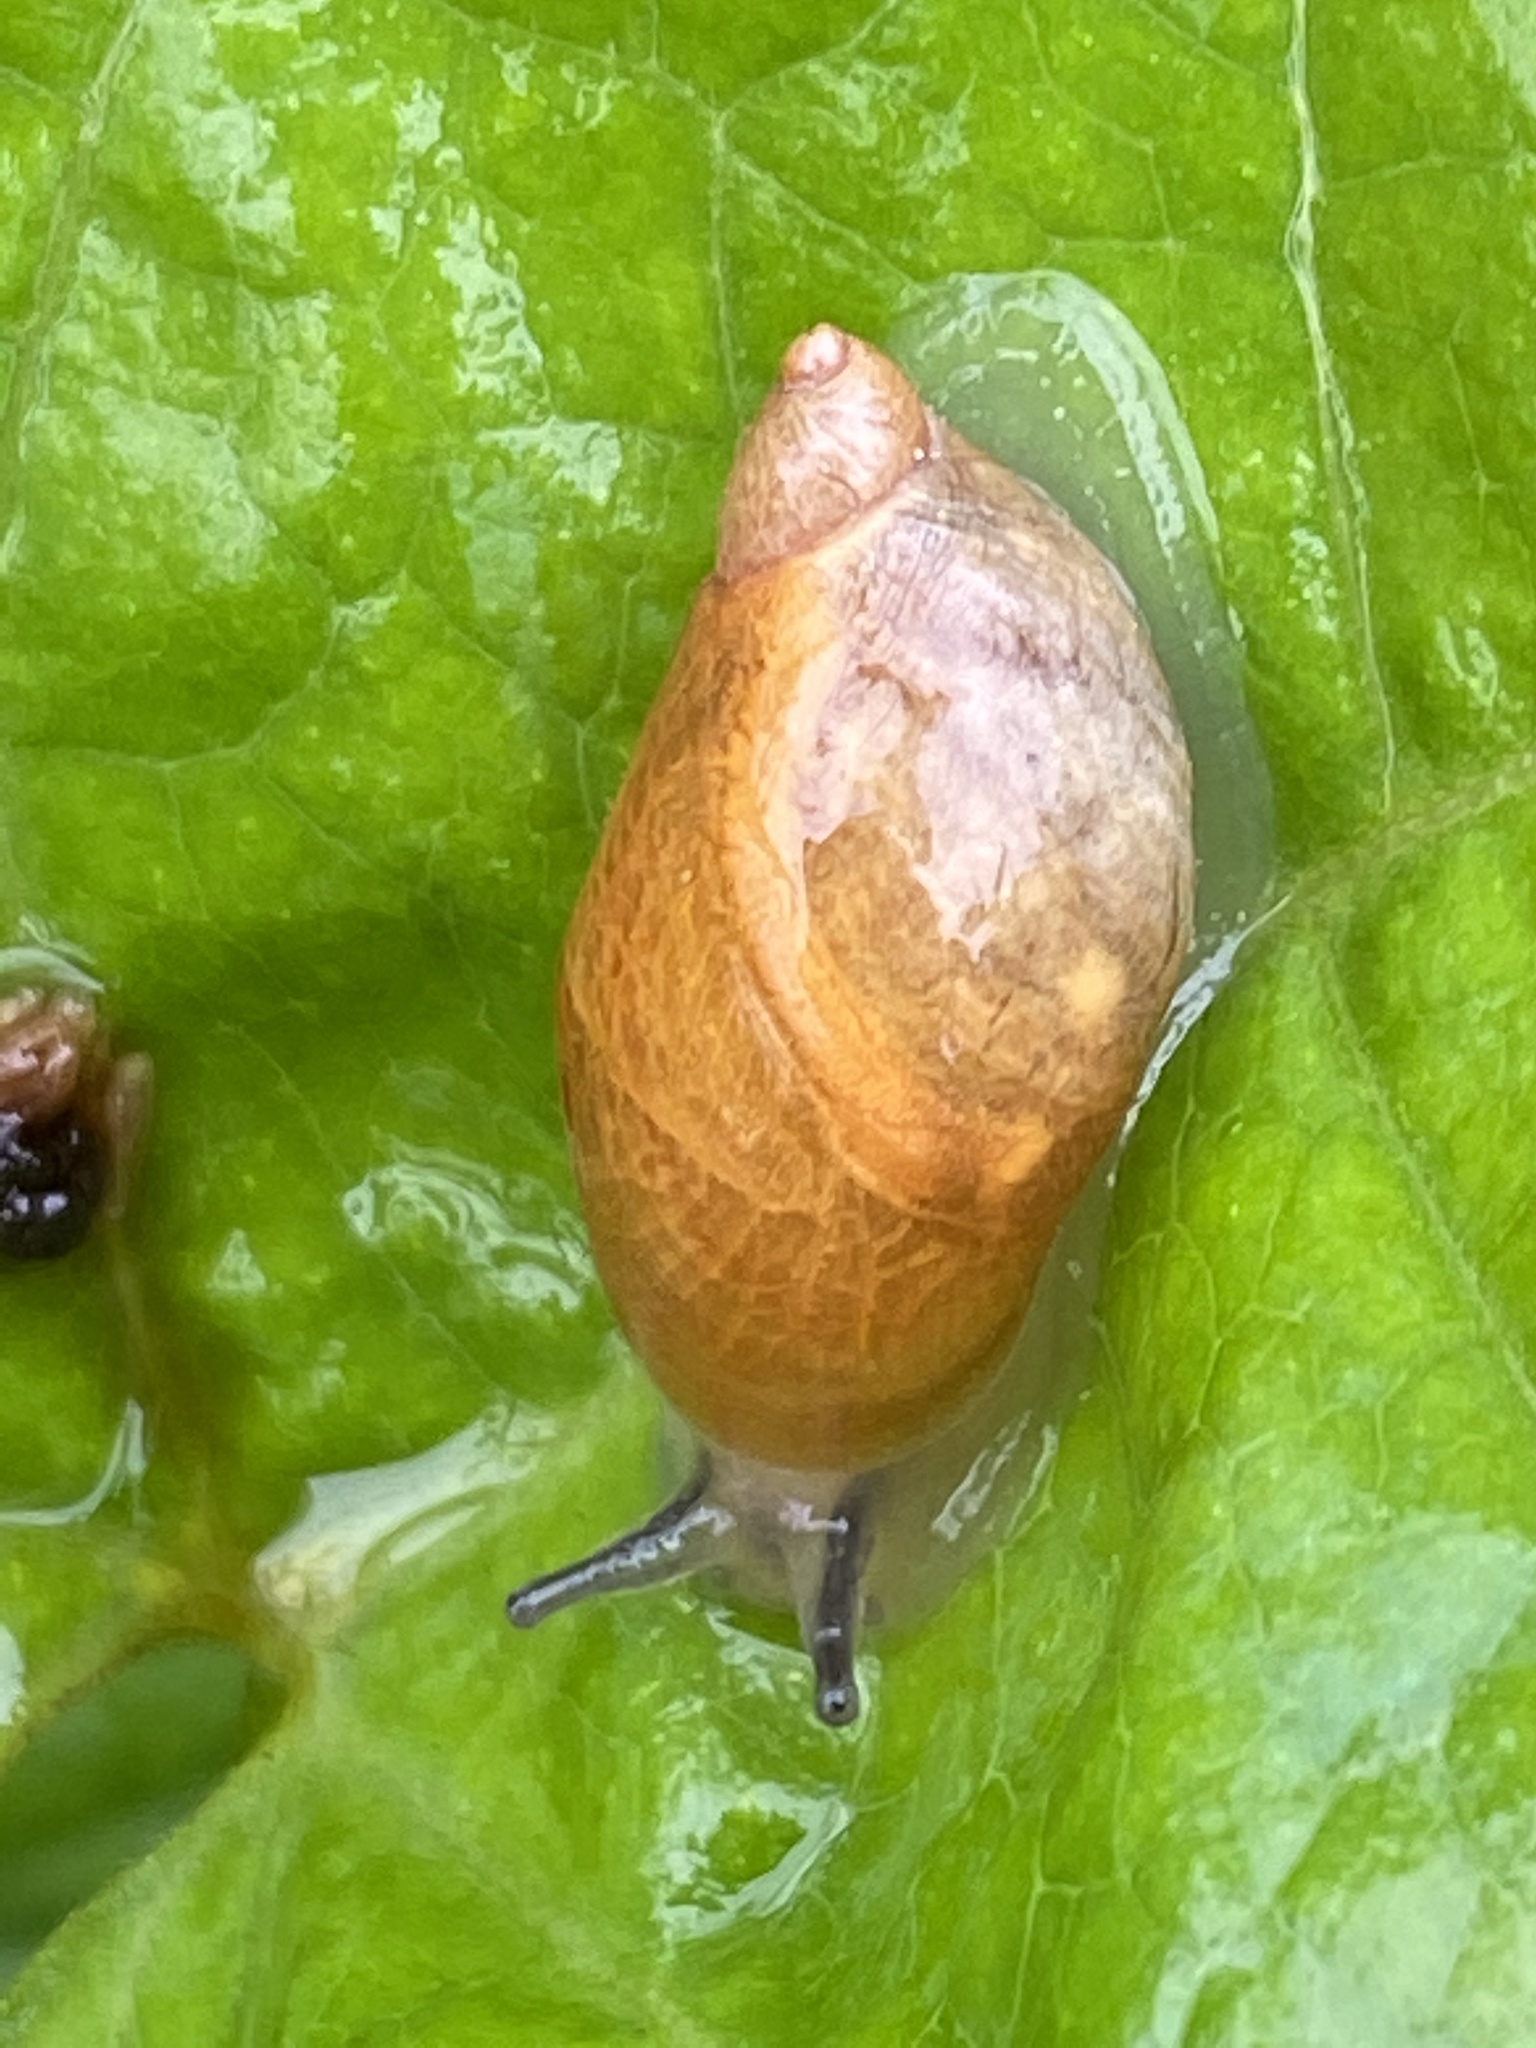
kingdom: Animalia
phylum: Mollusca
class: Gastropoda
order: Stylommatophora
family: Succineidae
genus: Succinea
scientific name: Succinea putris
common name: European ambersnail
